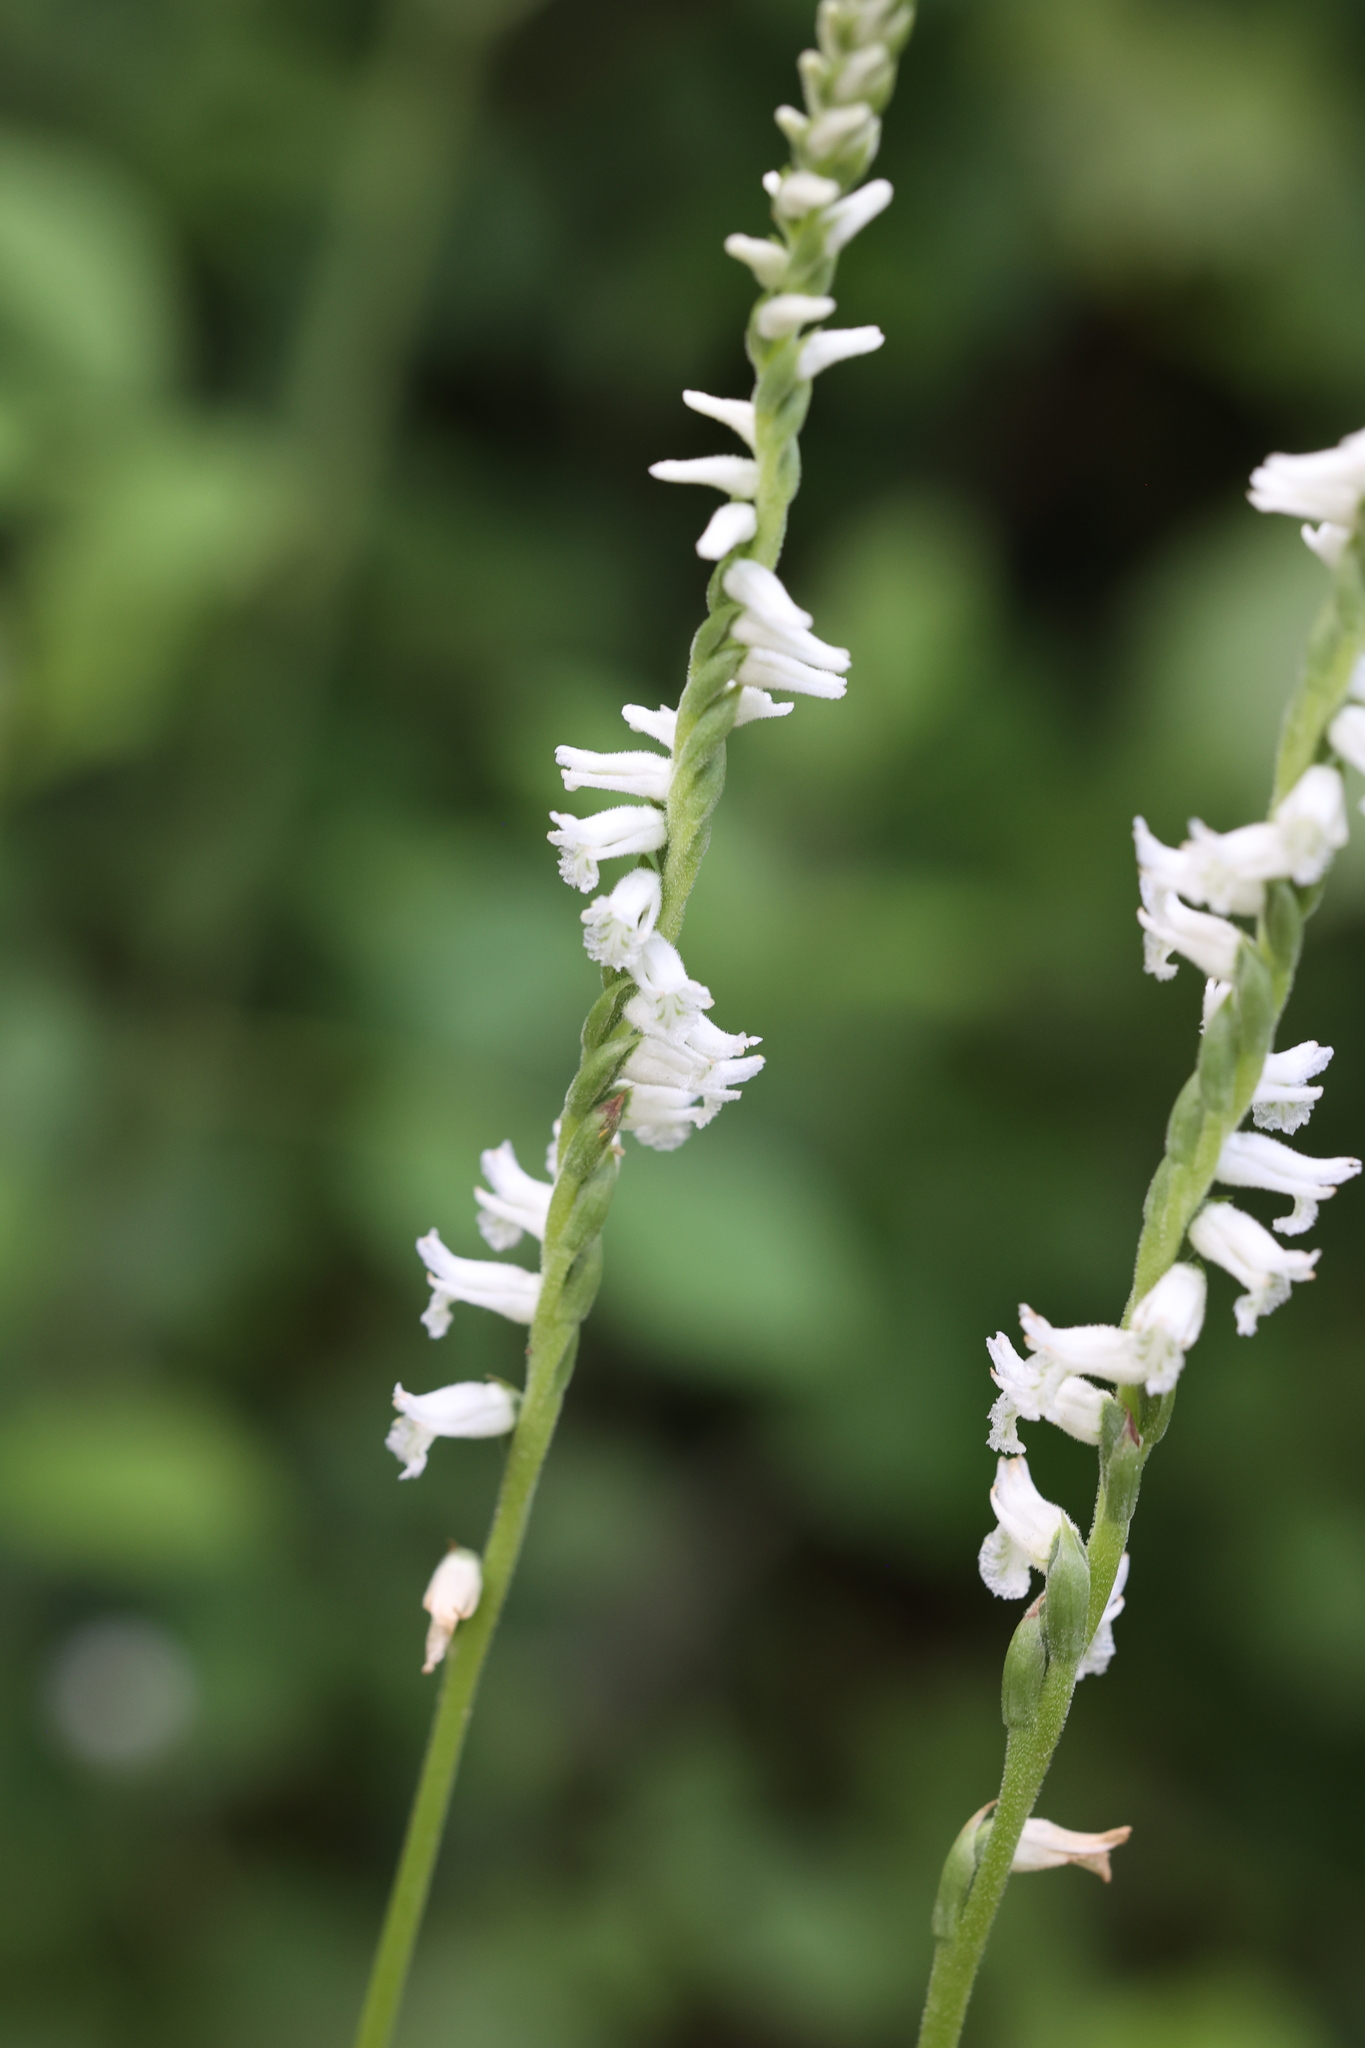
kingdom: Plantae
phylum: Tracheophyta
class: Liliopsida
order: Asparagales
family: Orchidaceae
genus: Spiranthes
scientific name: Spiranthes praecox
